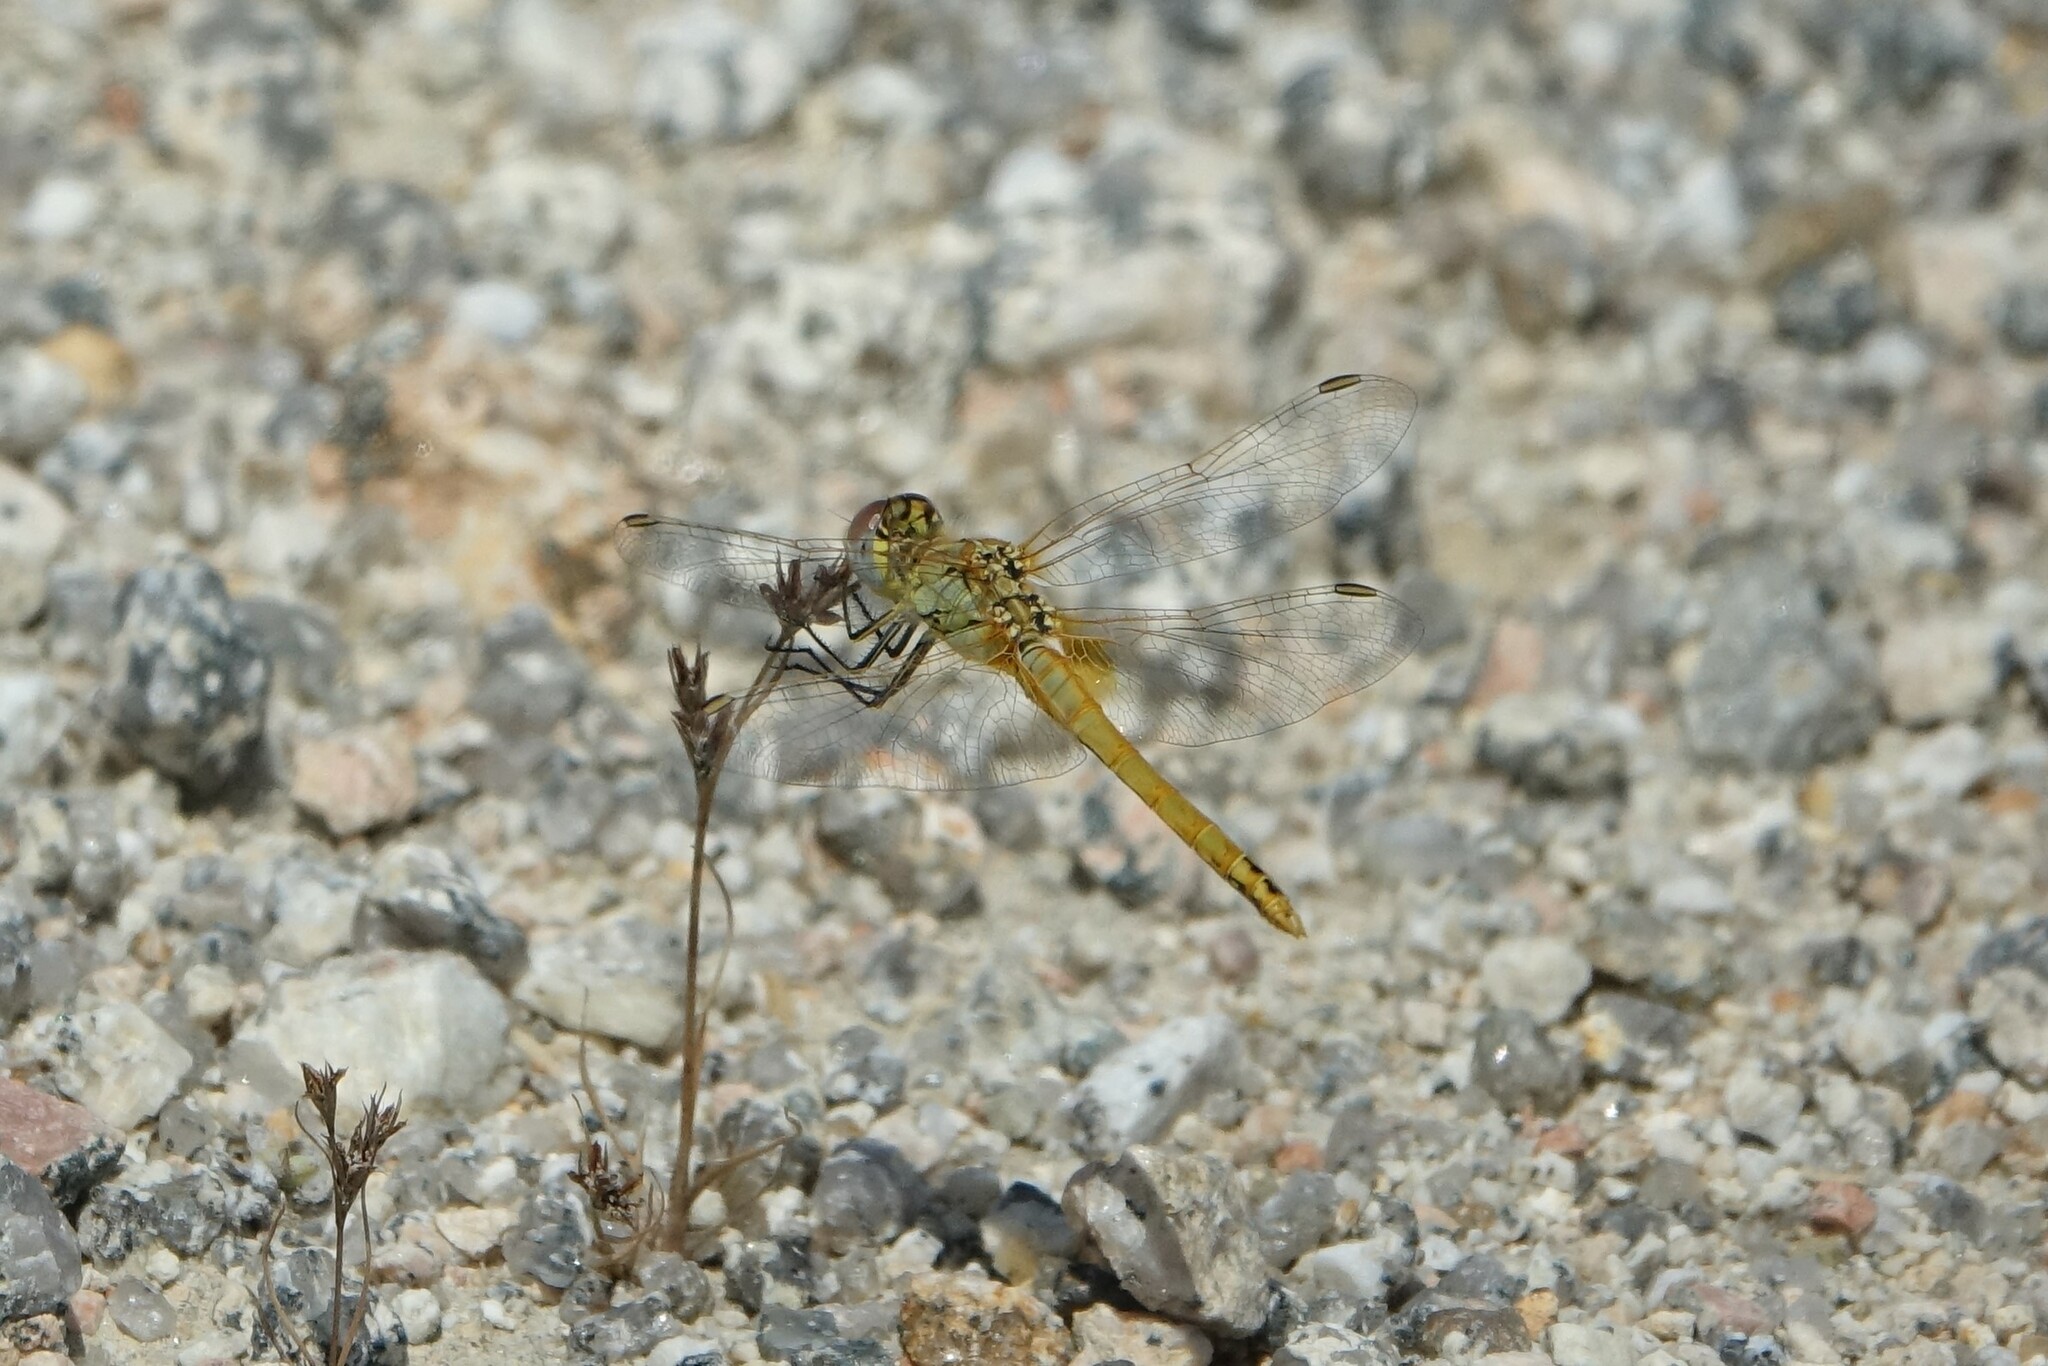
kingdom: Animalia
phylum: Arthropoda
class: Insecta
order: Odonata
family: Libellulidae
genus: Sympetrum
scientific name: Sympetrum fonscolombii
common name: Red-veined darter
